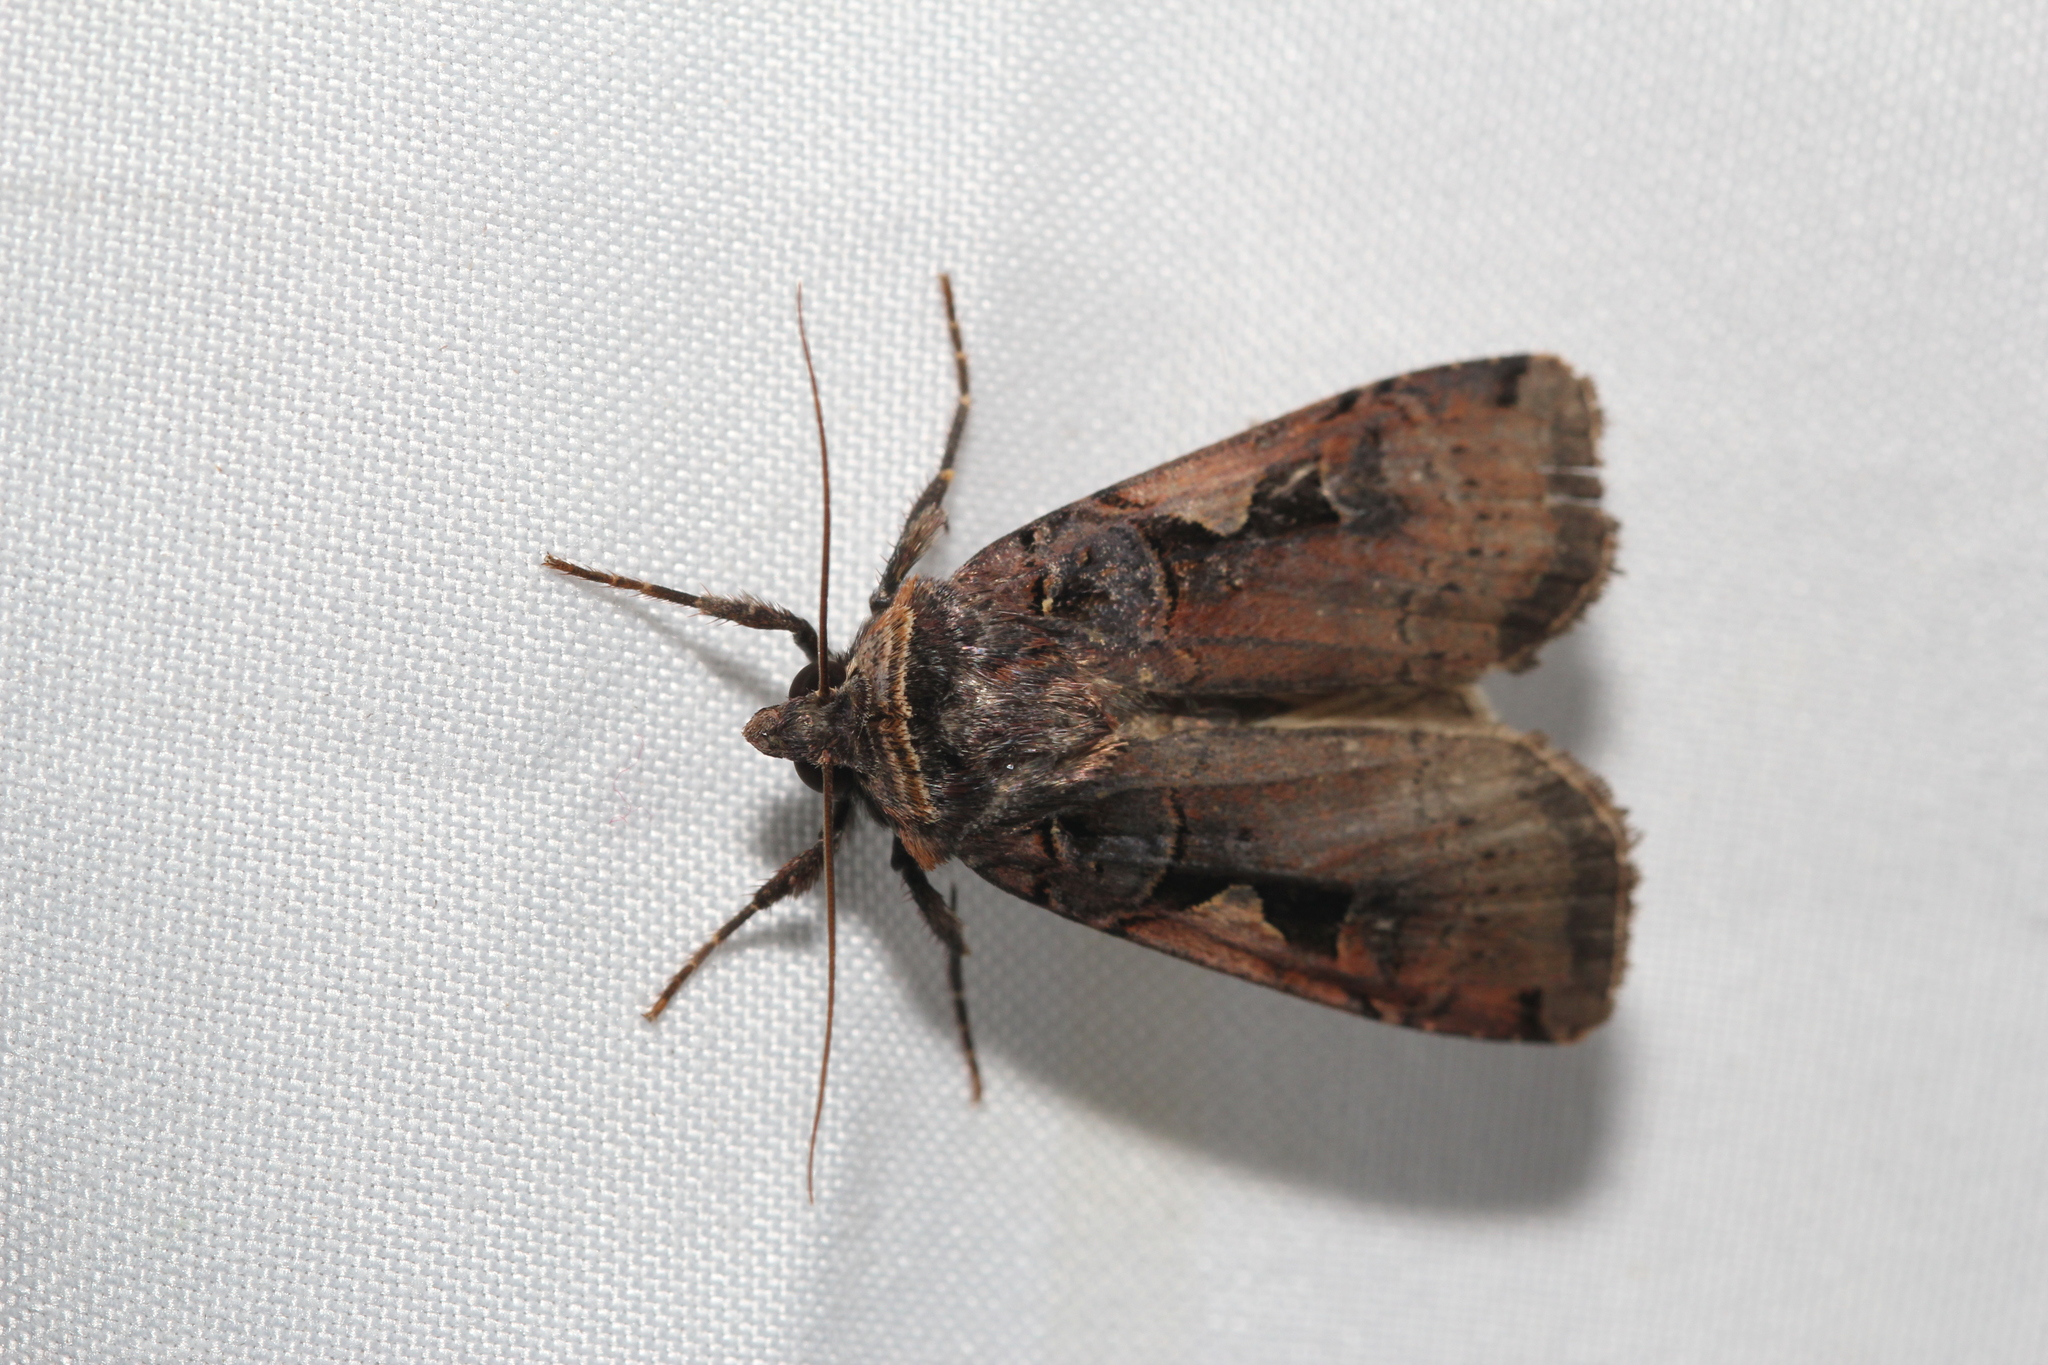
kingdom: Animalia
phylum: Arthropoda
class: Insecta
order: Lepidoptera
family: Noctuidae
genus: Xestia
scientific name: Xestia
